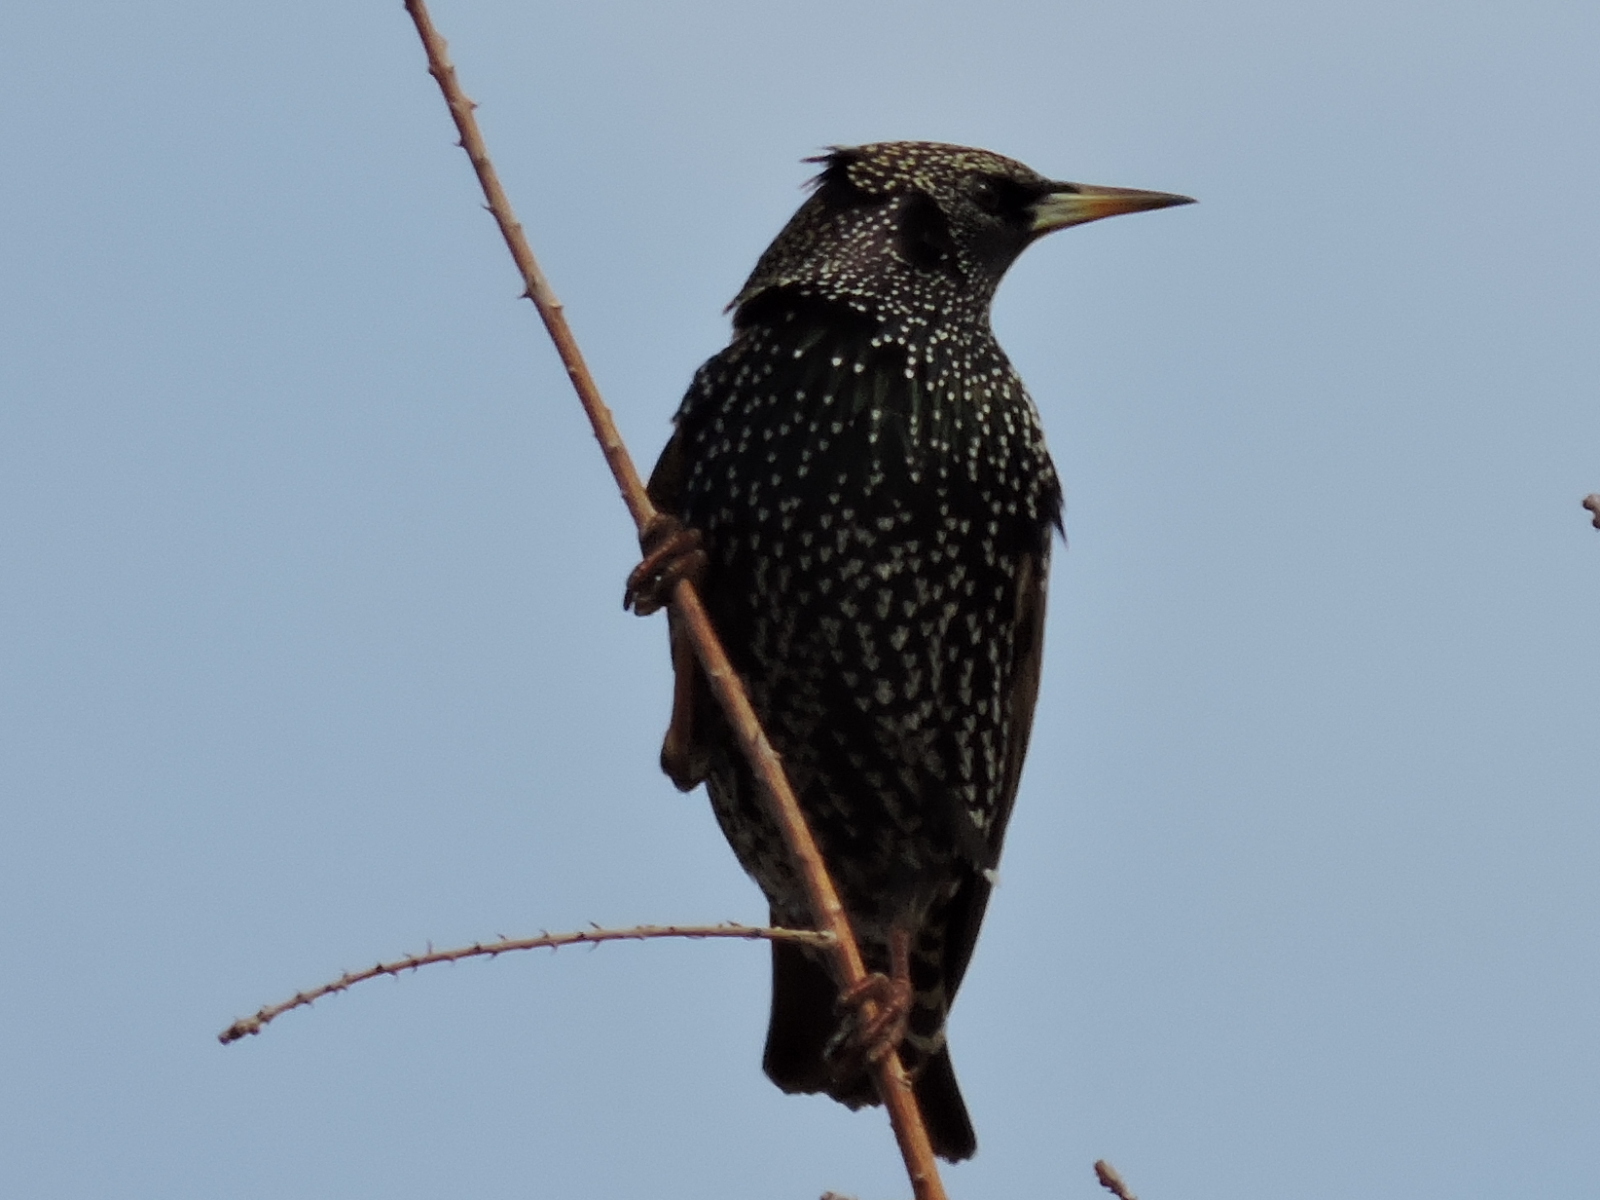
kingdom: Animalia
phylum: Chordata
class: Aves
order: Passeriformes
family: Sturnidae
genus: Sturnus
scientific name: Sturnus vulgaris
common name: Common starling
